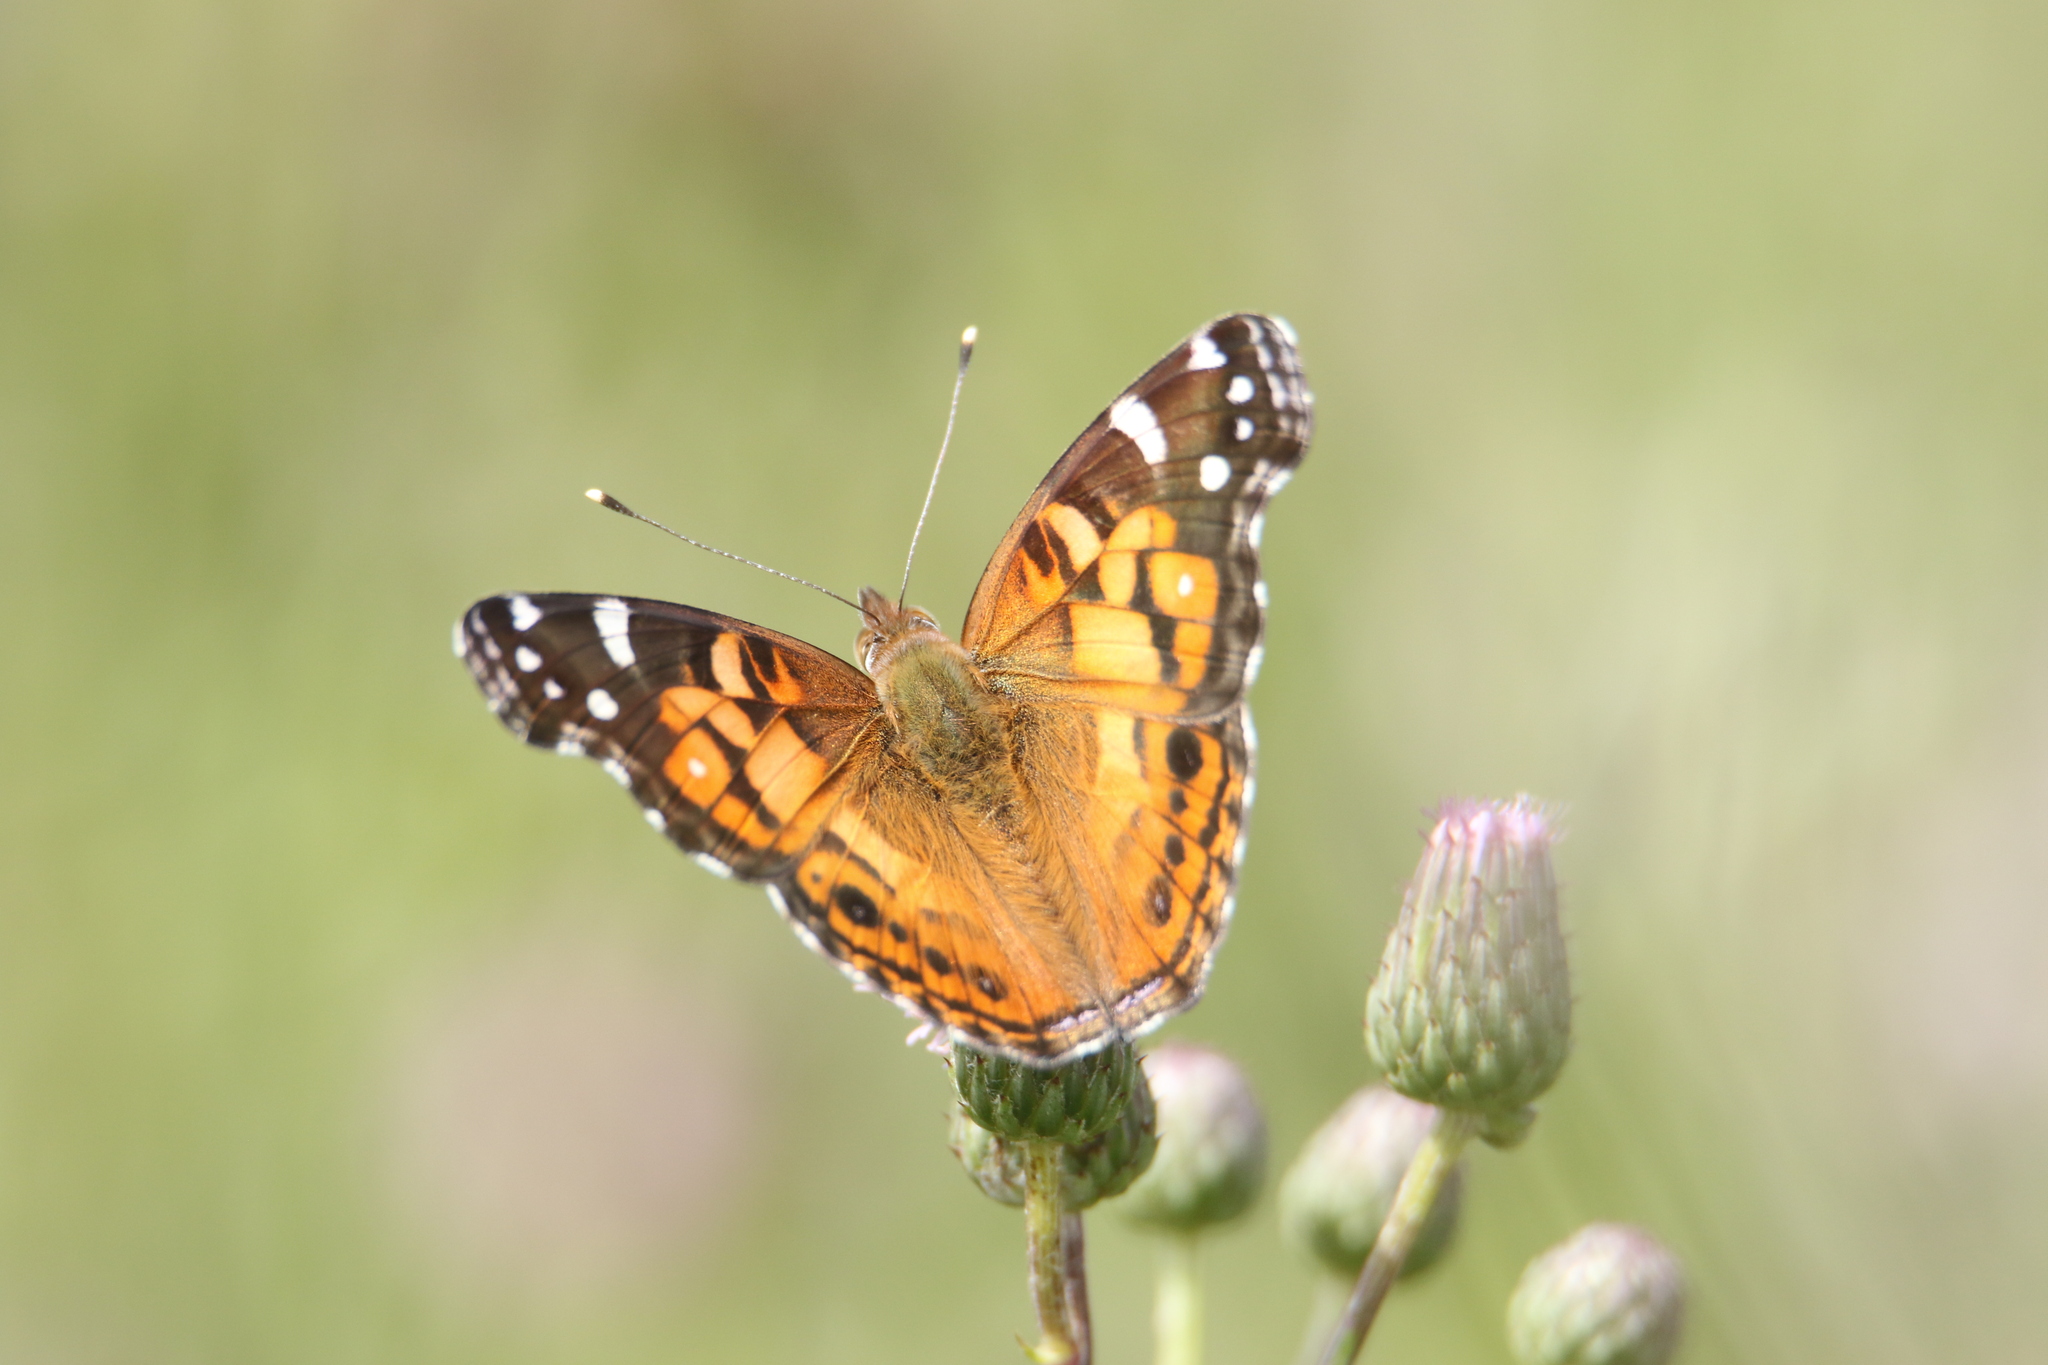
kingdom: Animalia
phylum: Arthropoda
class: Insecta
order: Lepidoptera
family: Nymphalidae
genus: Vanessa
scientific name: Vanessa virginiensis
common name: American lady
